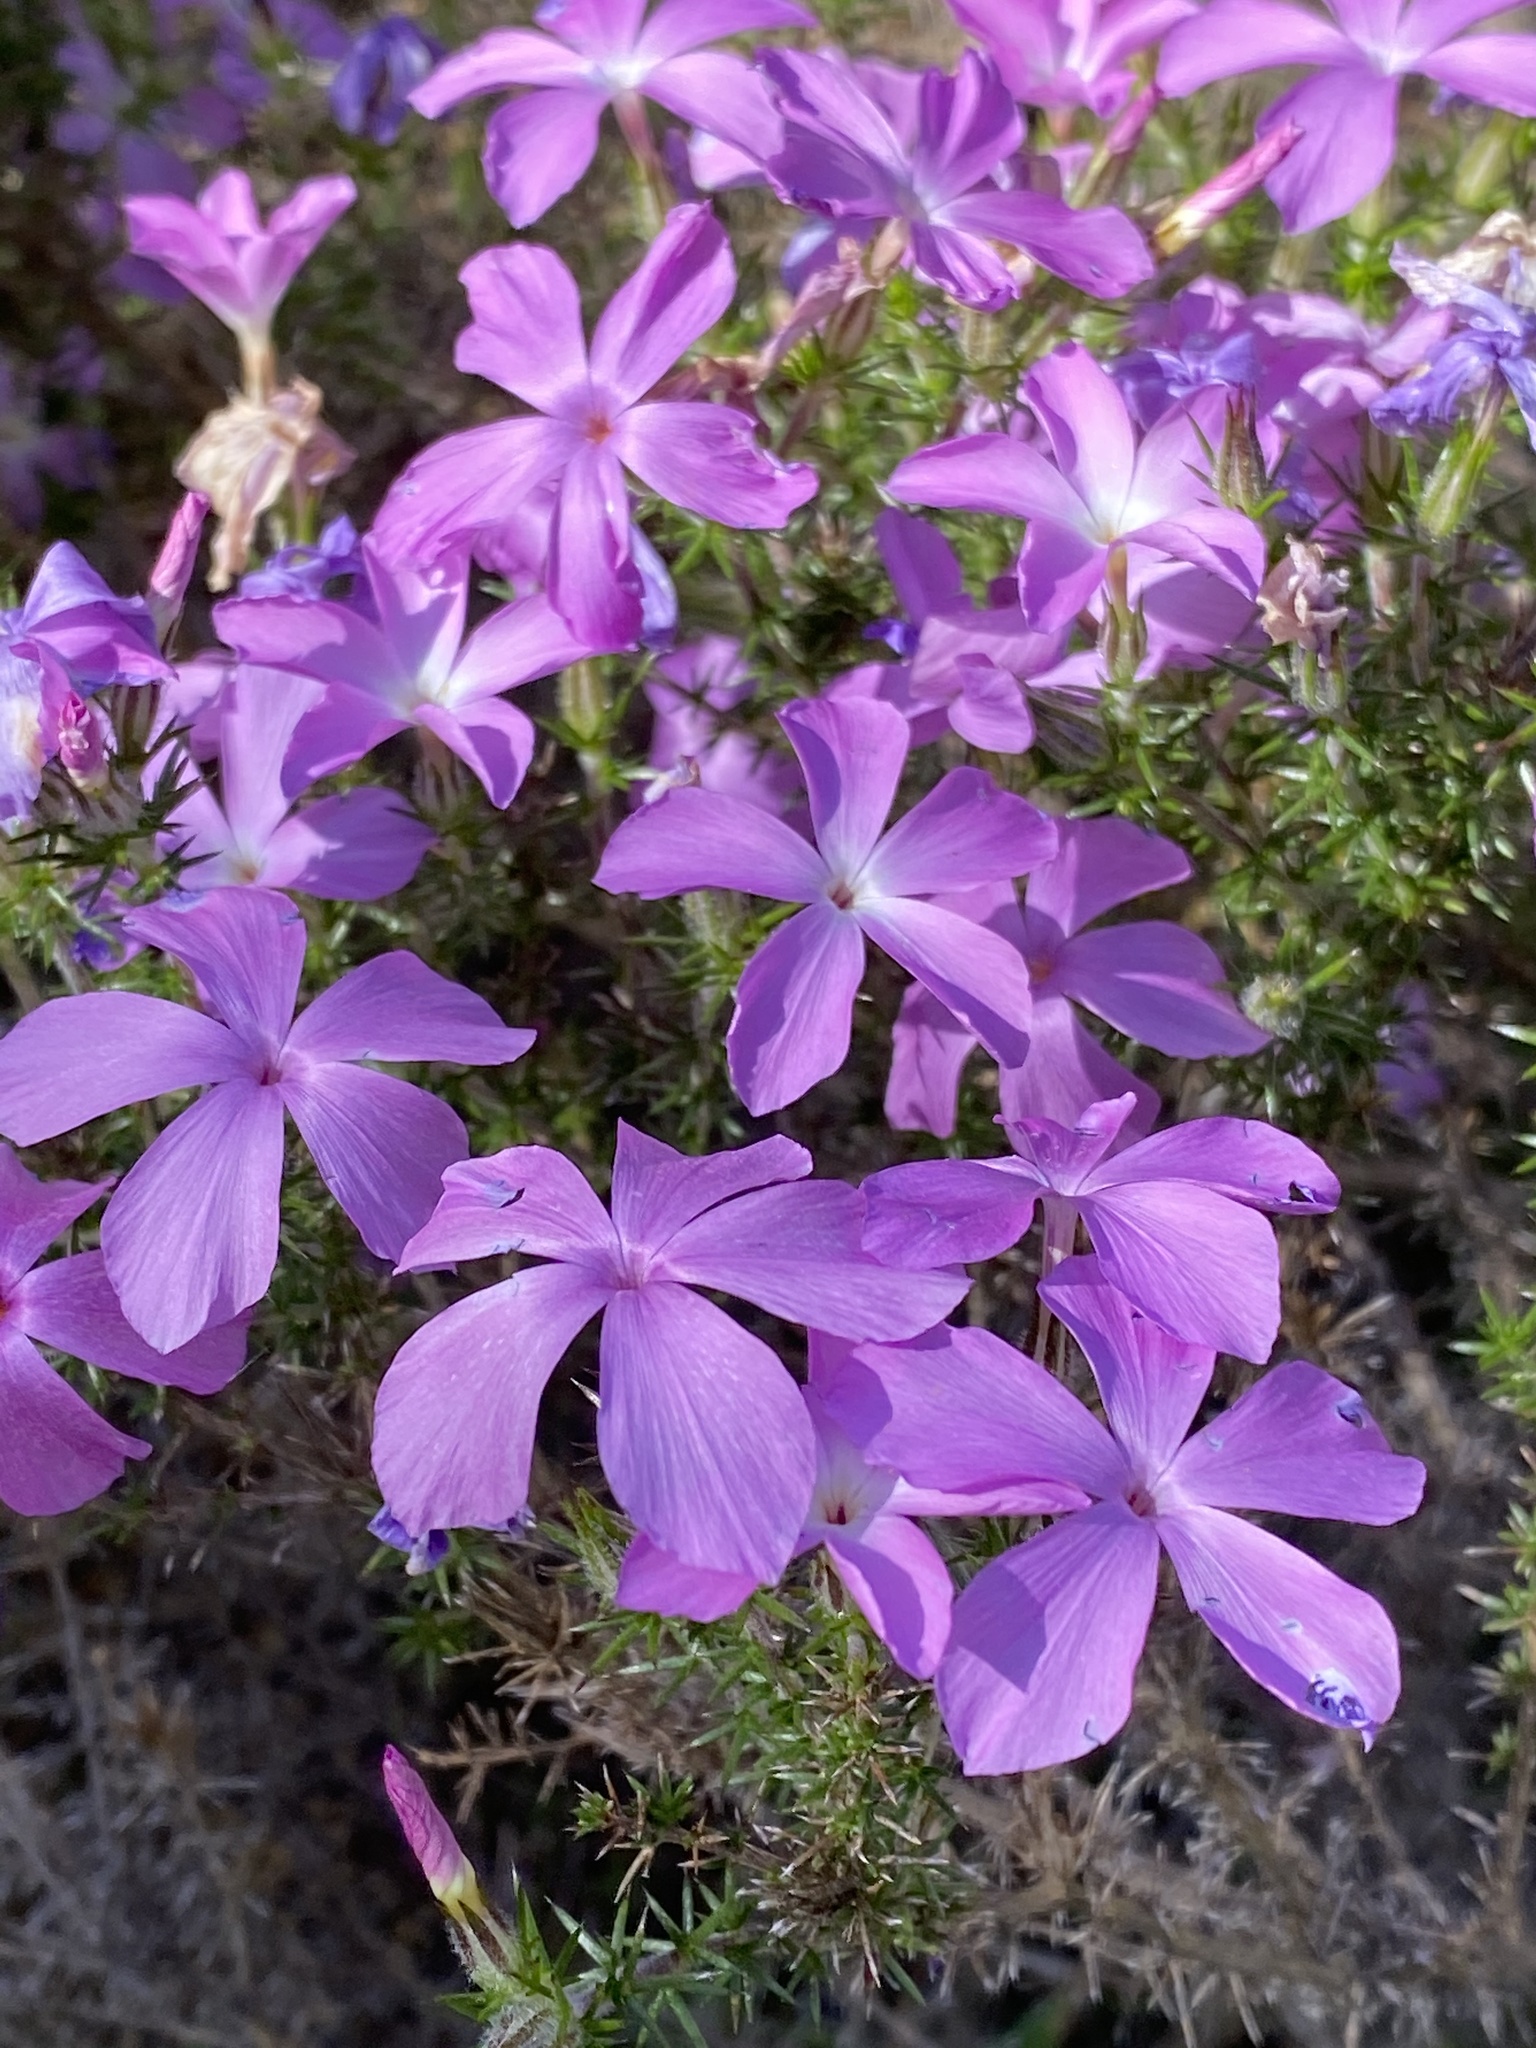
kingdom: Plantae
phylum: Tracheophyta
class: Magnoliopsida
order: Ericales
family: Polemoniaceae
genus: Linanthus
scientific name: Linanthus californicus
